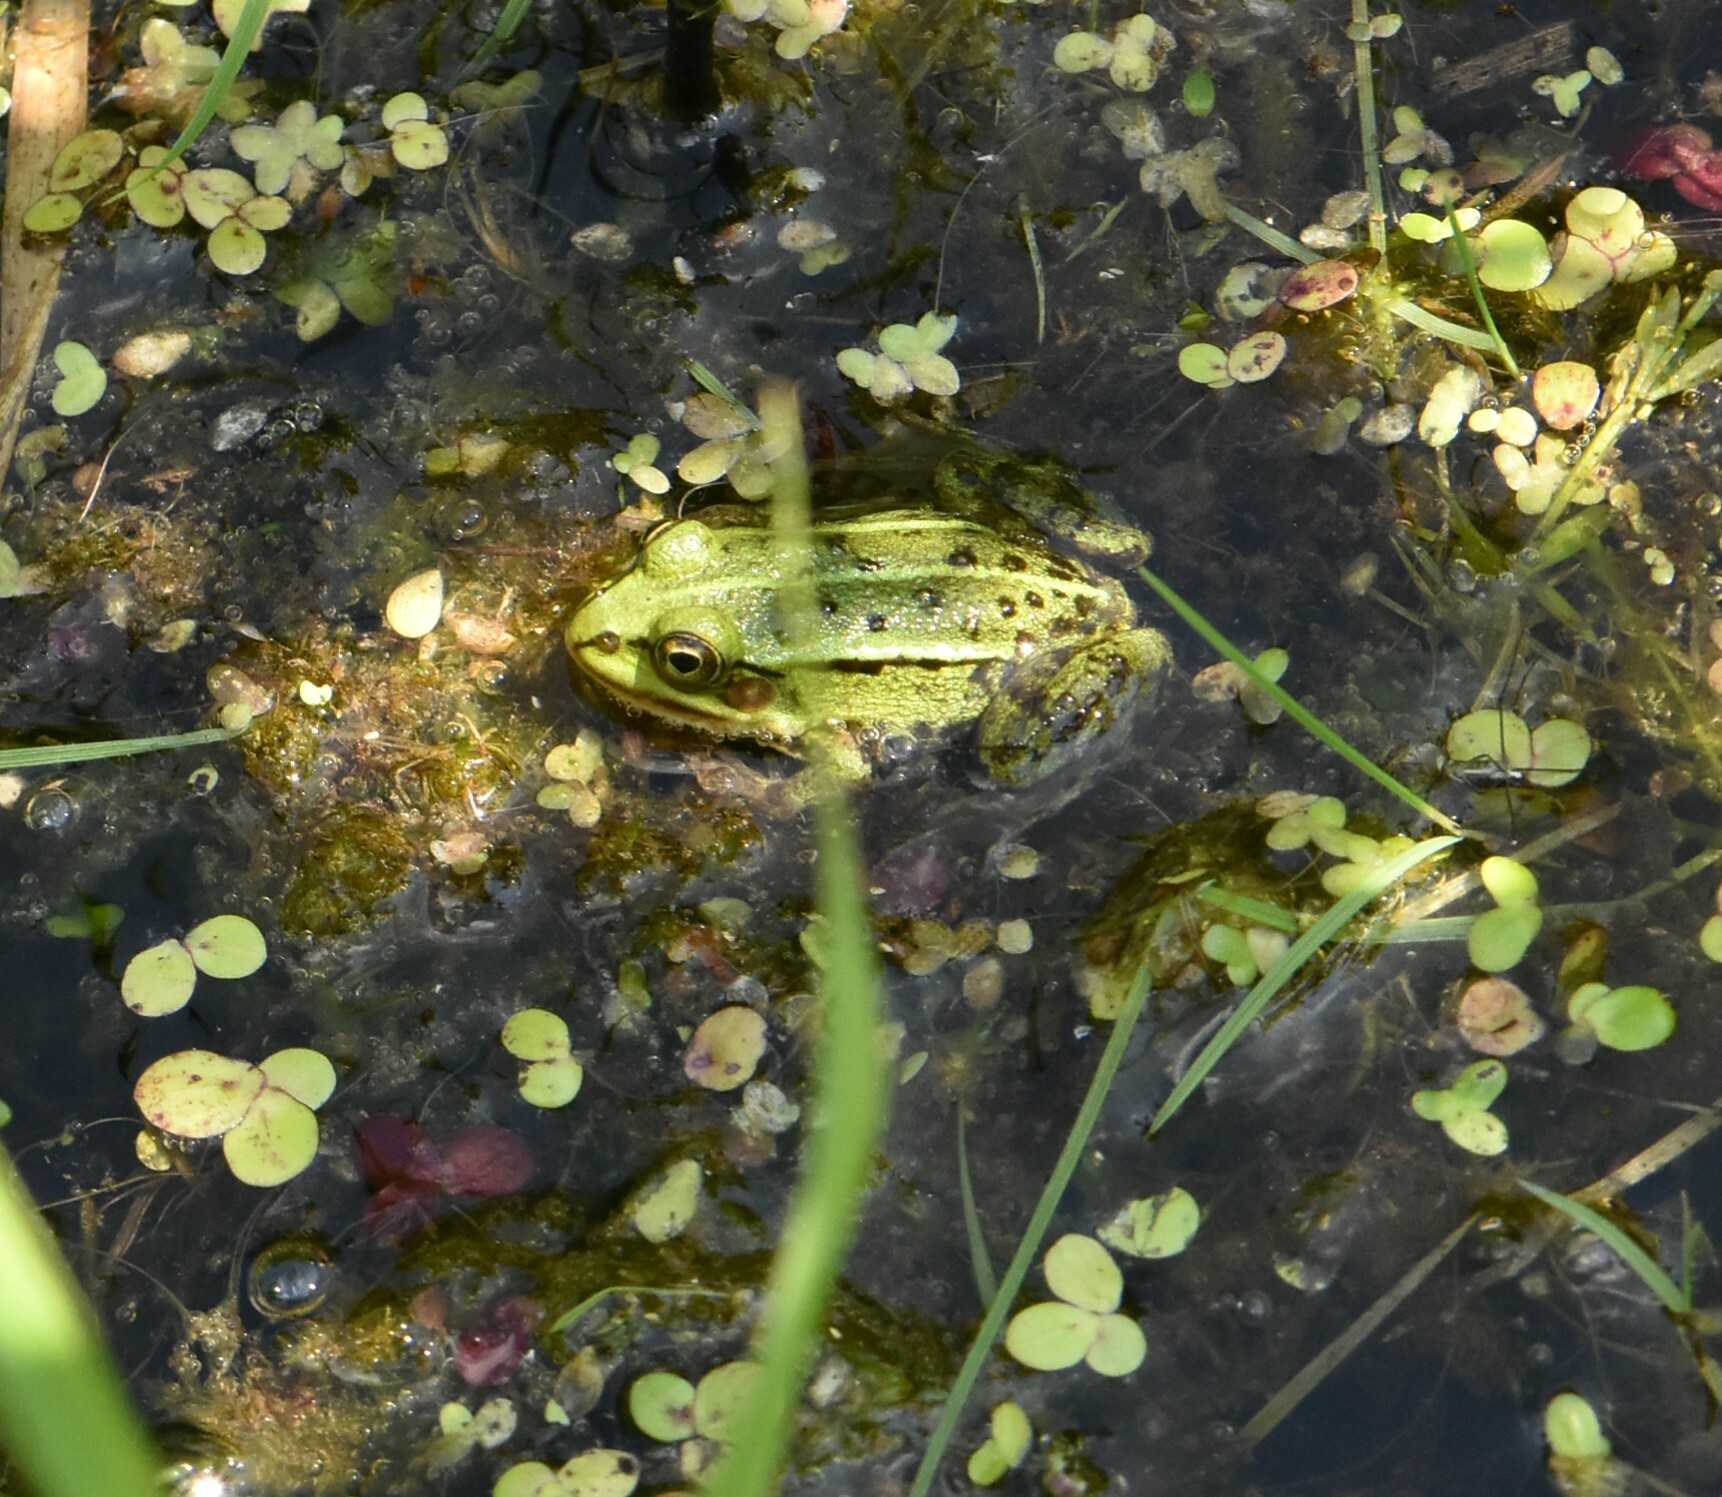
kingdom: Animalia
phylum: Chordata
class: Amphibia
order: Anura
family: Ranidae
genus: Pelophylax
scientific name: Pelophylax lessonae
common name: Pool frog
